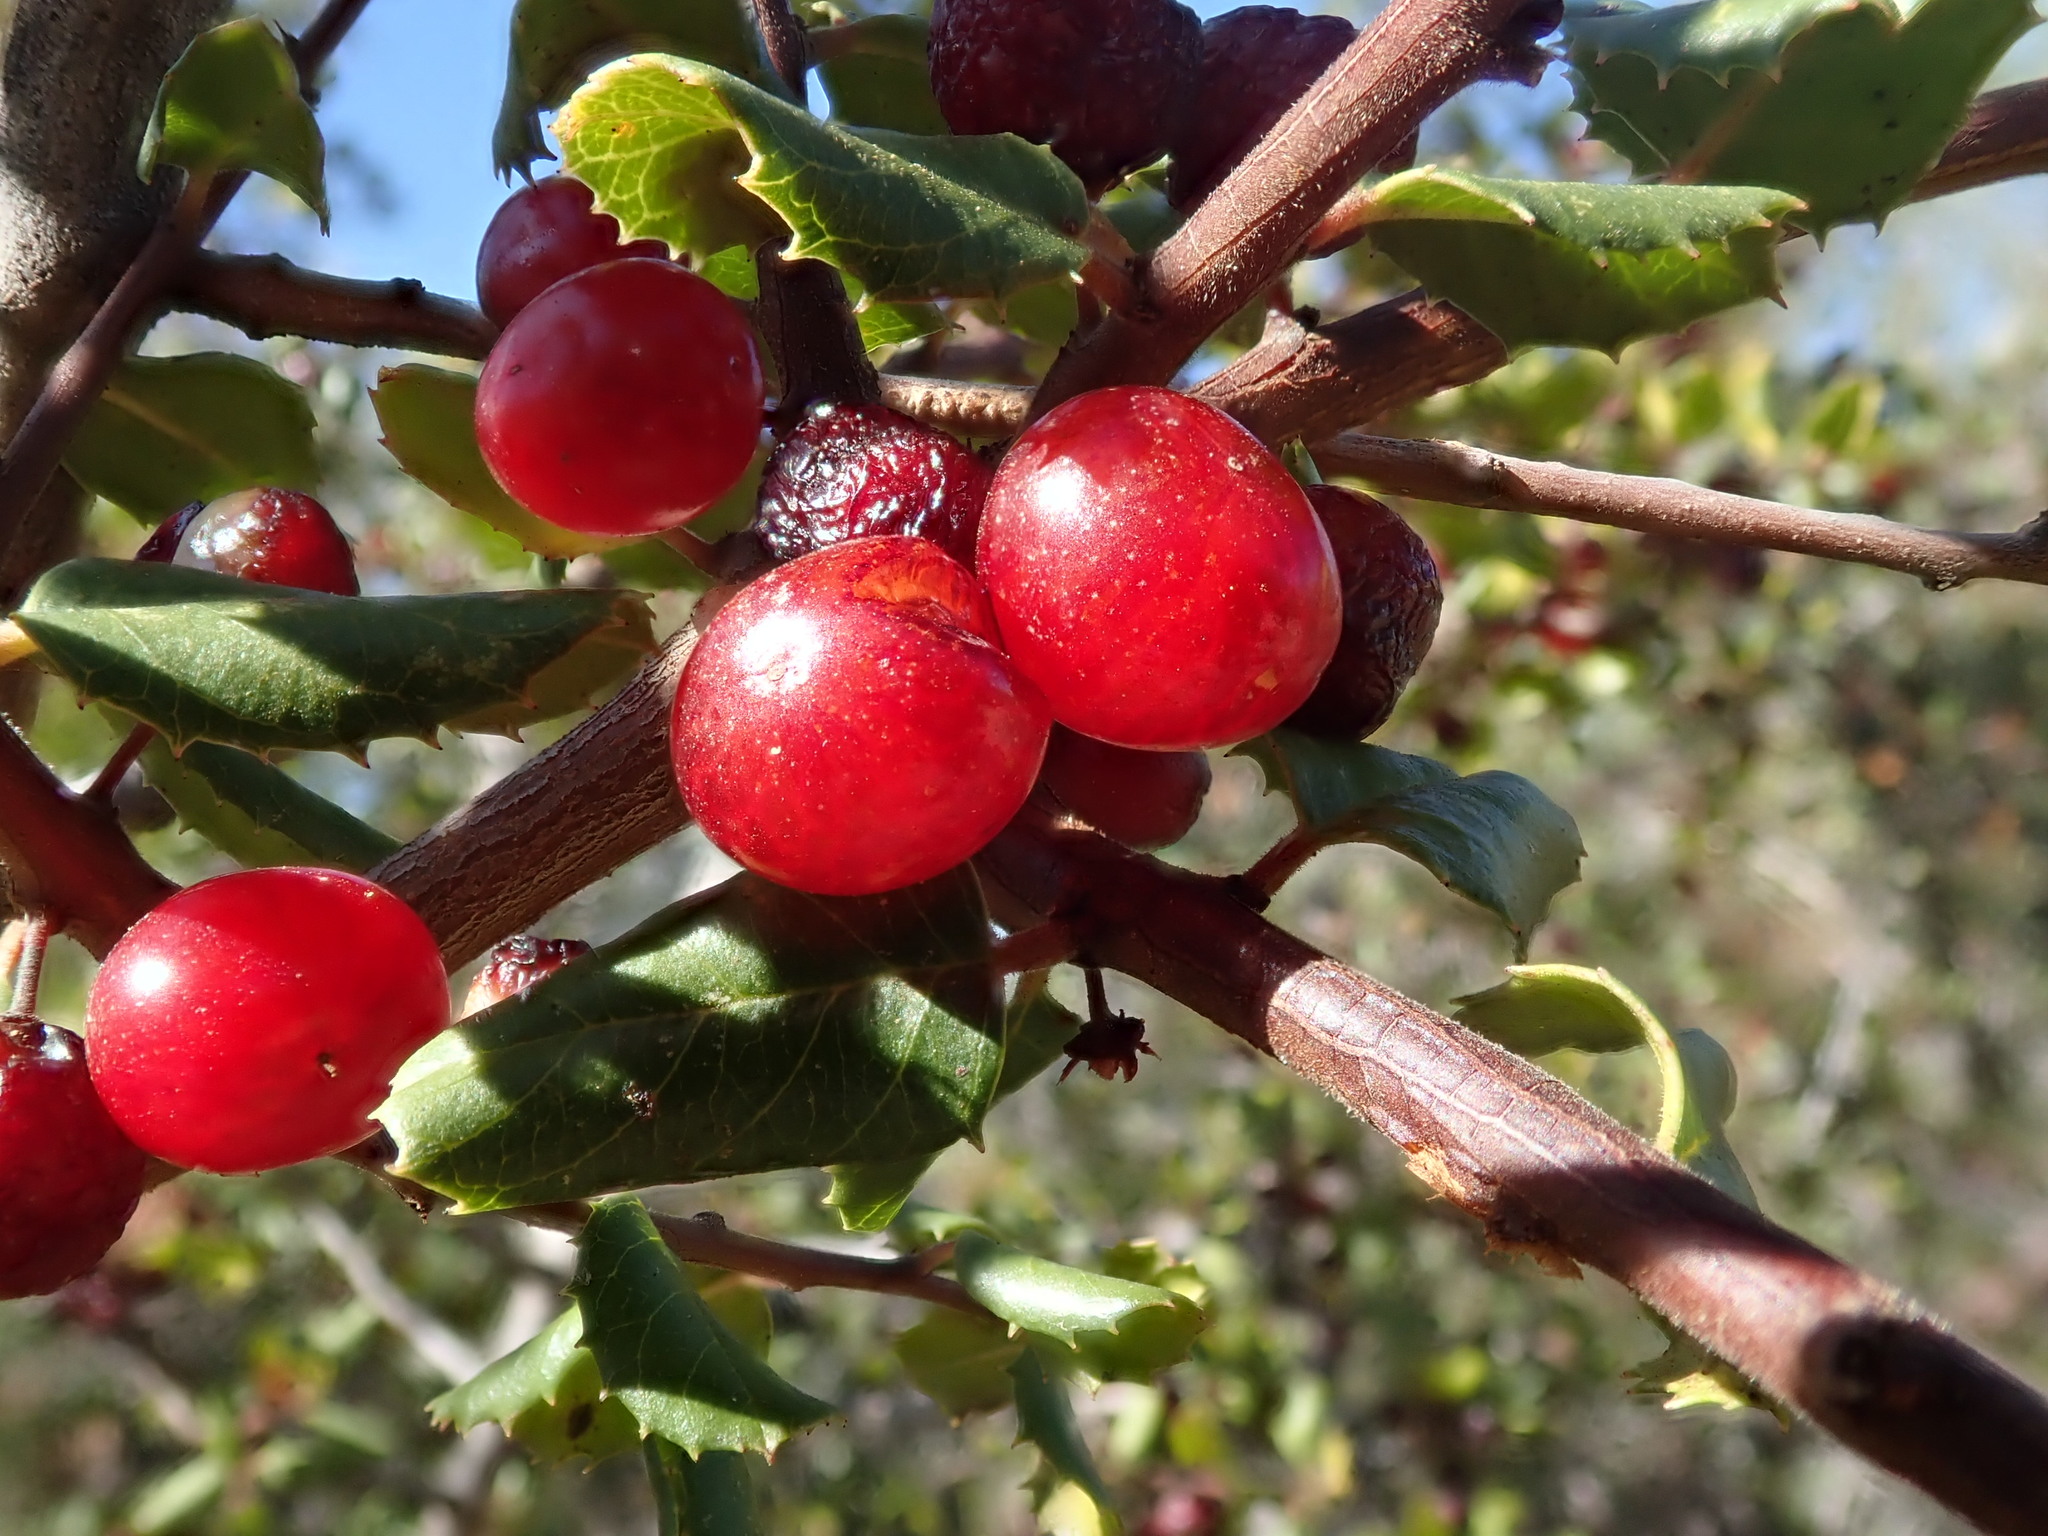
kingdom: Plantae
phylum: Tracheophyta
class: Magnoliopsida
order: Rosales
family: Rhamnaceae
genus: Endotropis
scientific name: Endotropis crocea
